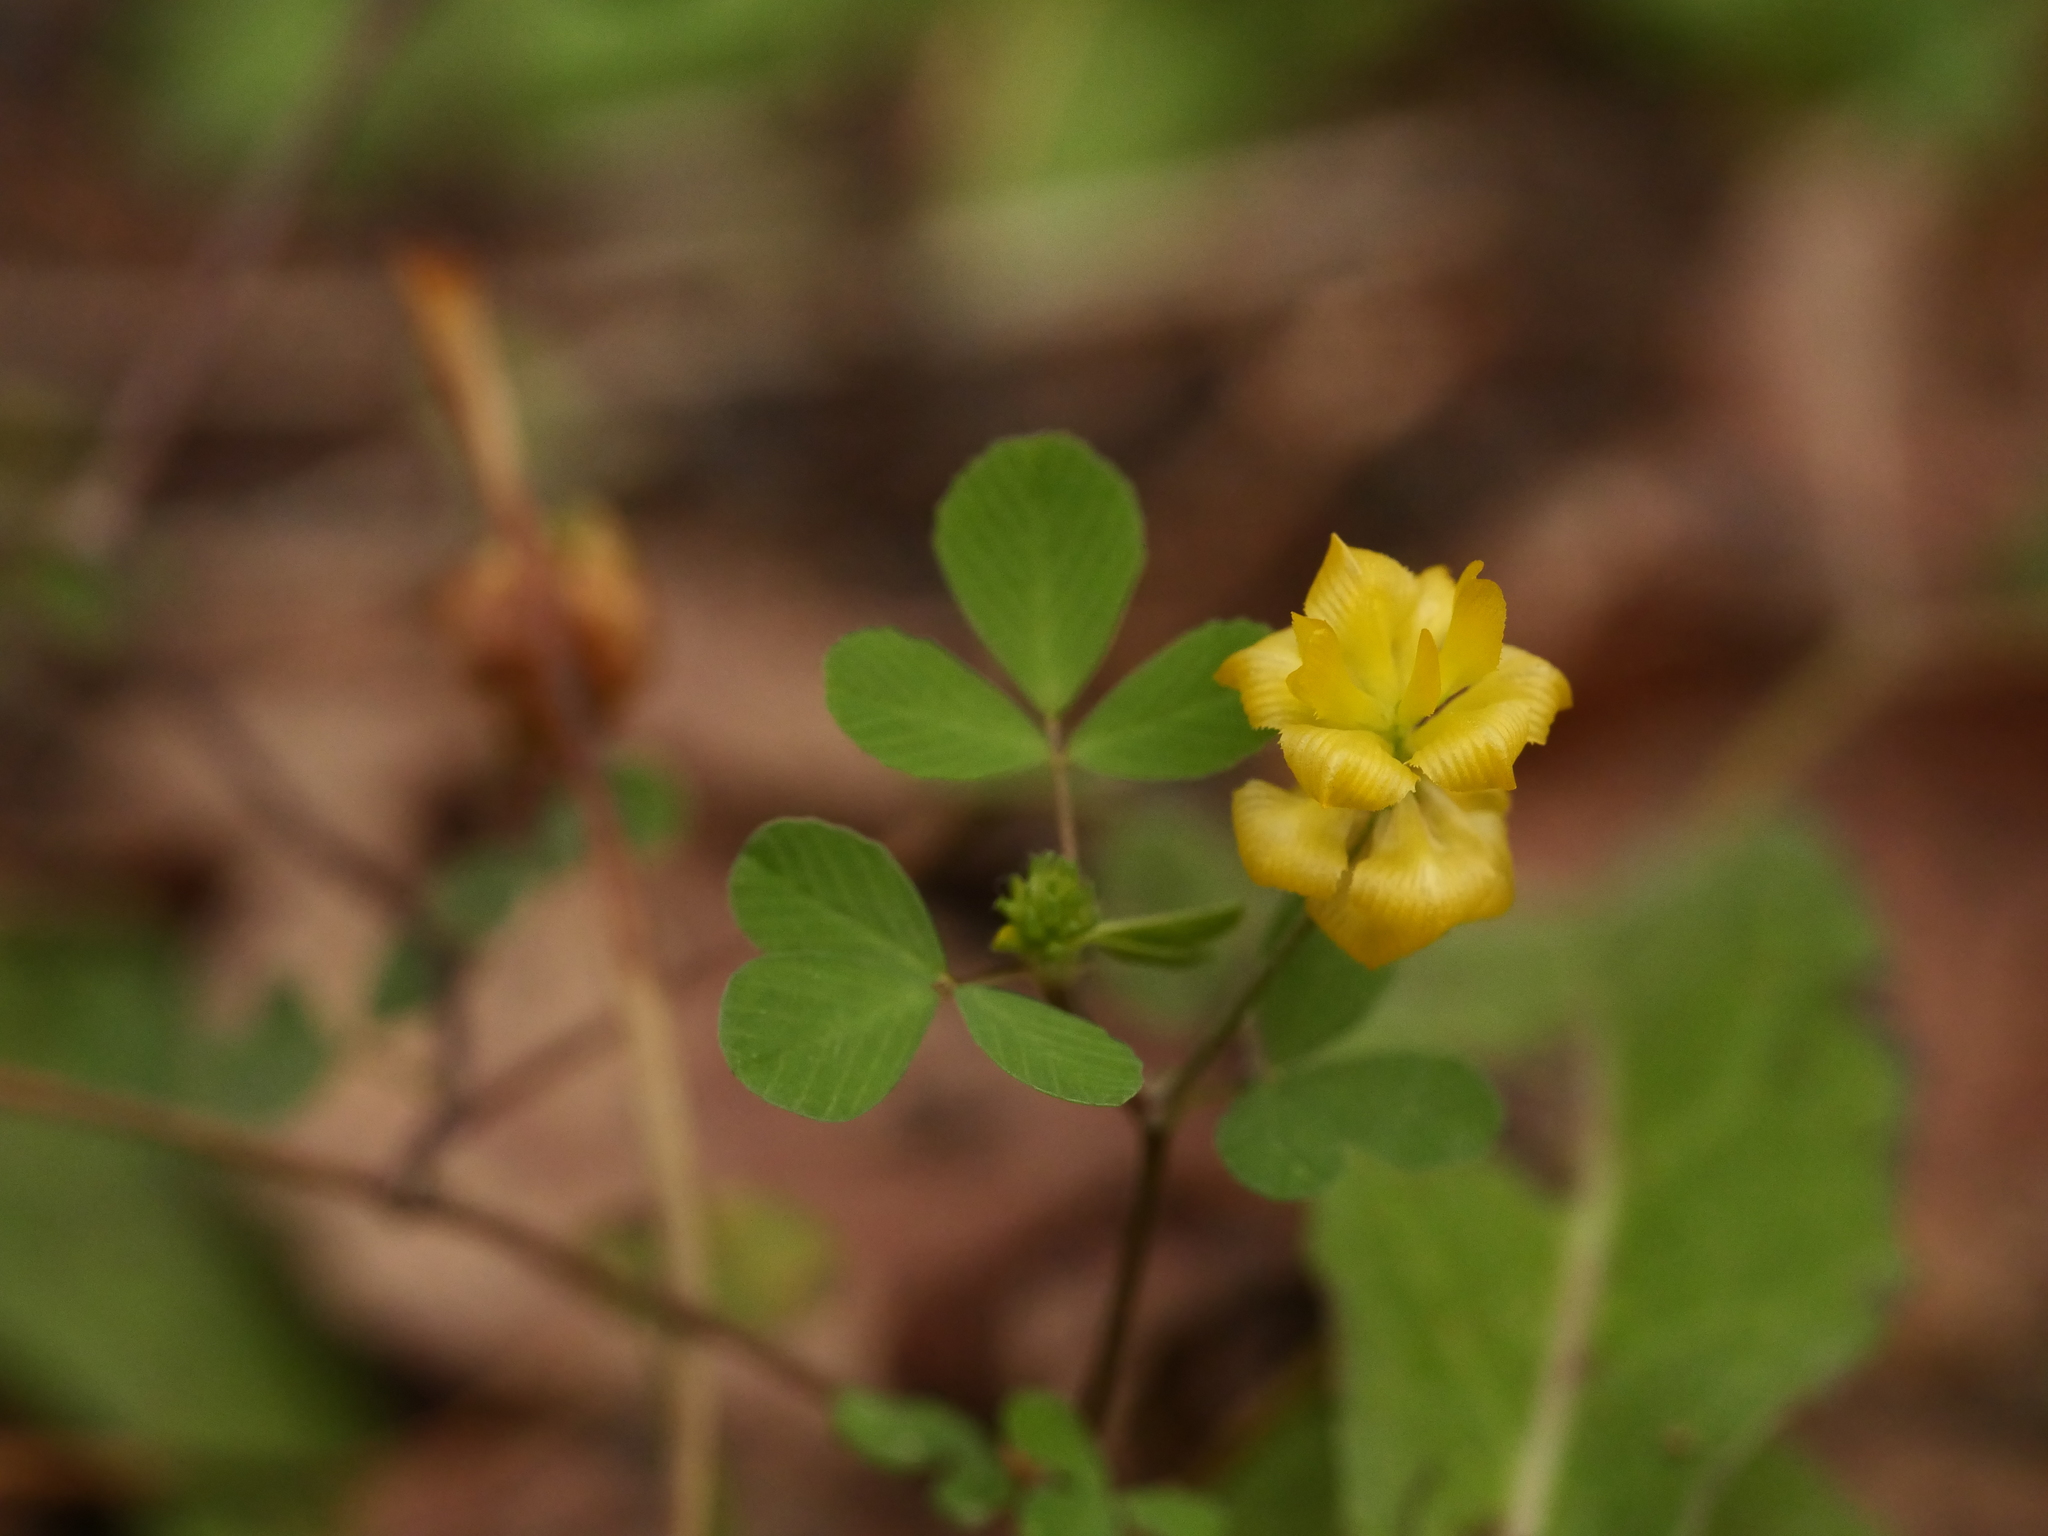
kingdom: Plantae
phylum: Tracheophyta
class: Magnoliopsida
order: Fabales
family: Fabaceae
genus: Trifolium
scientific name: Trifolium campestre
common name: Field clover
